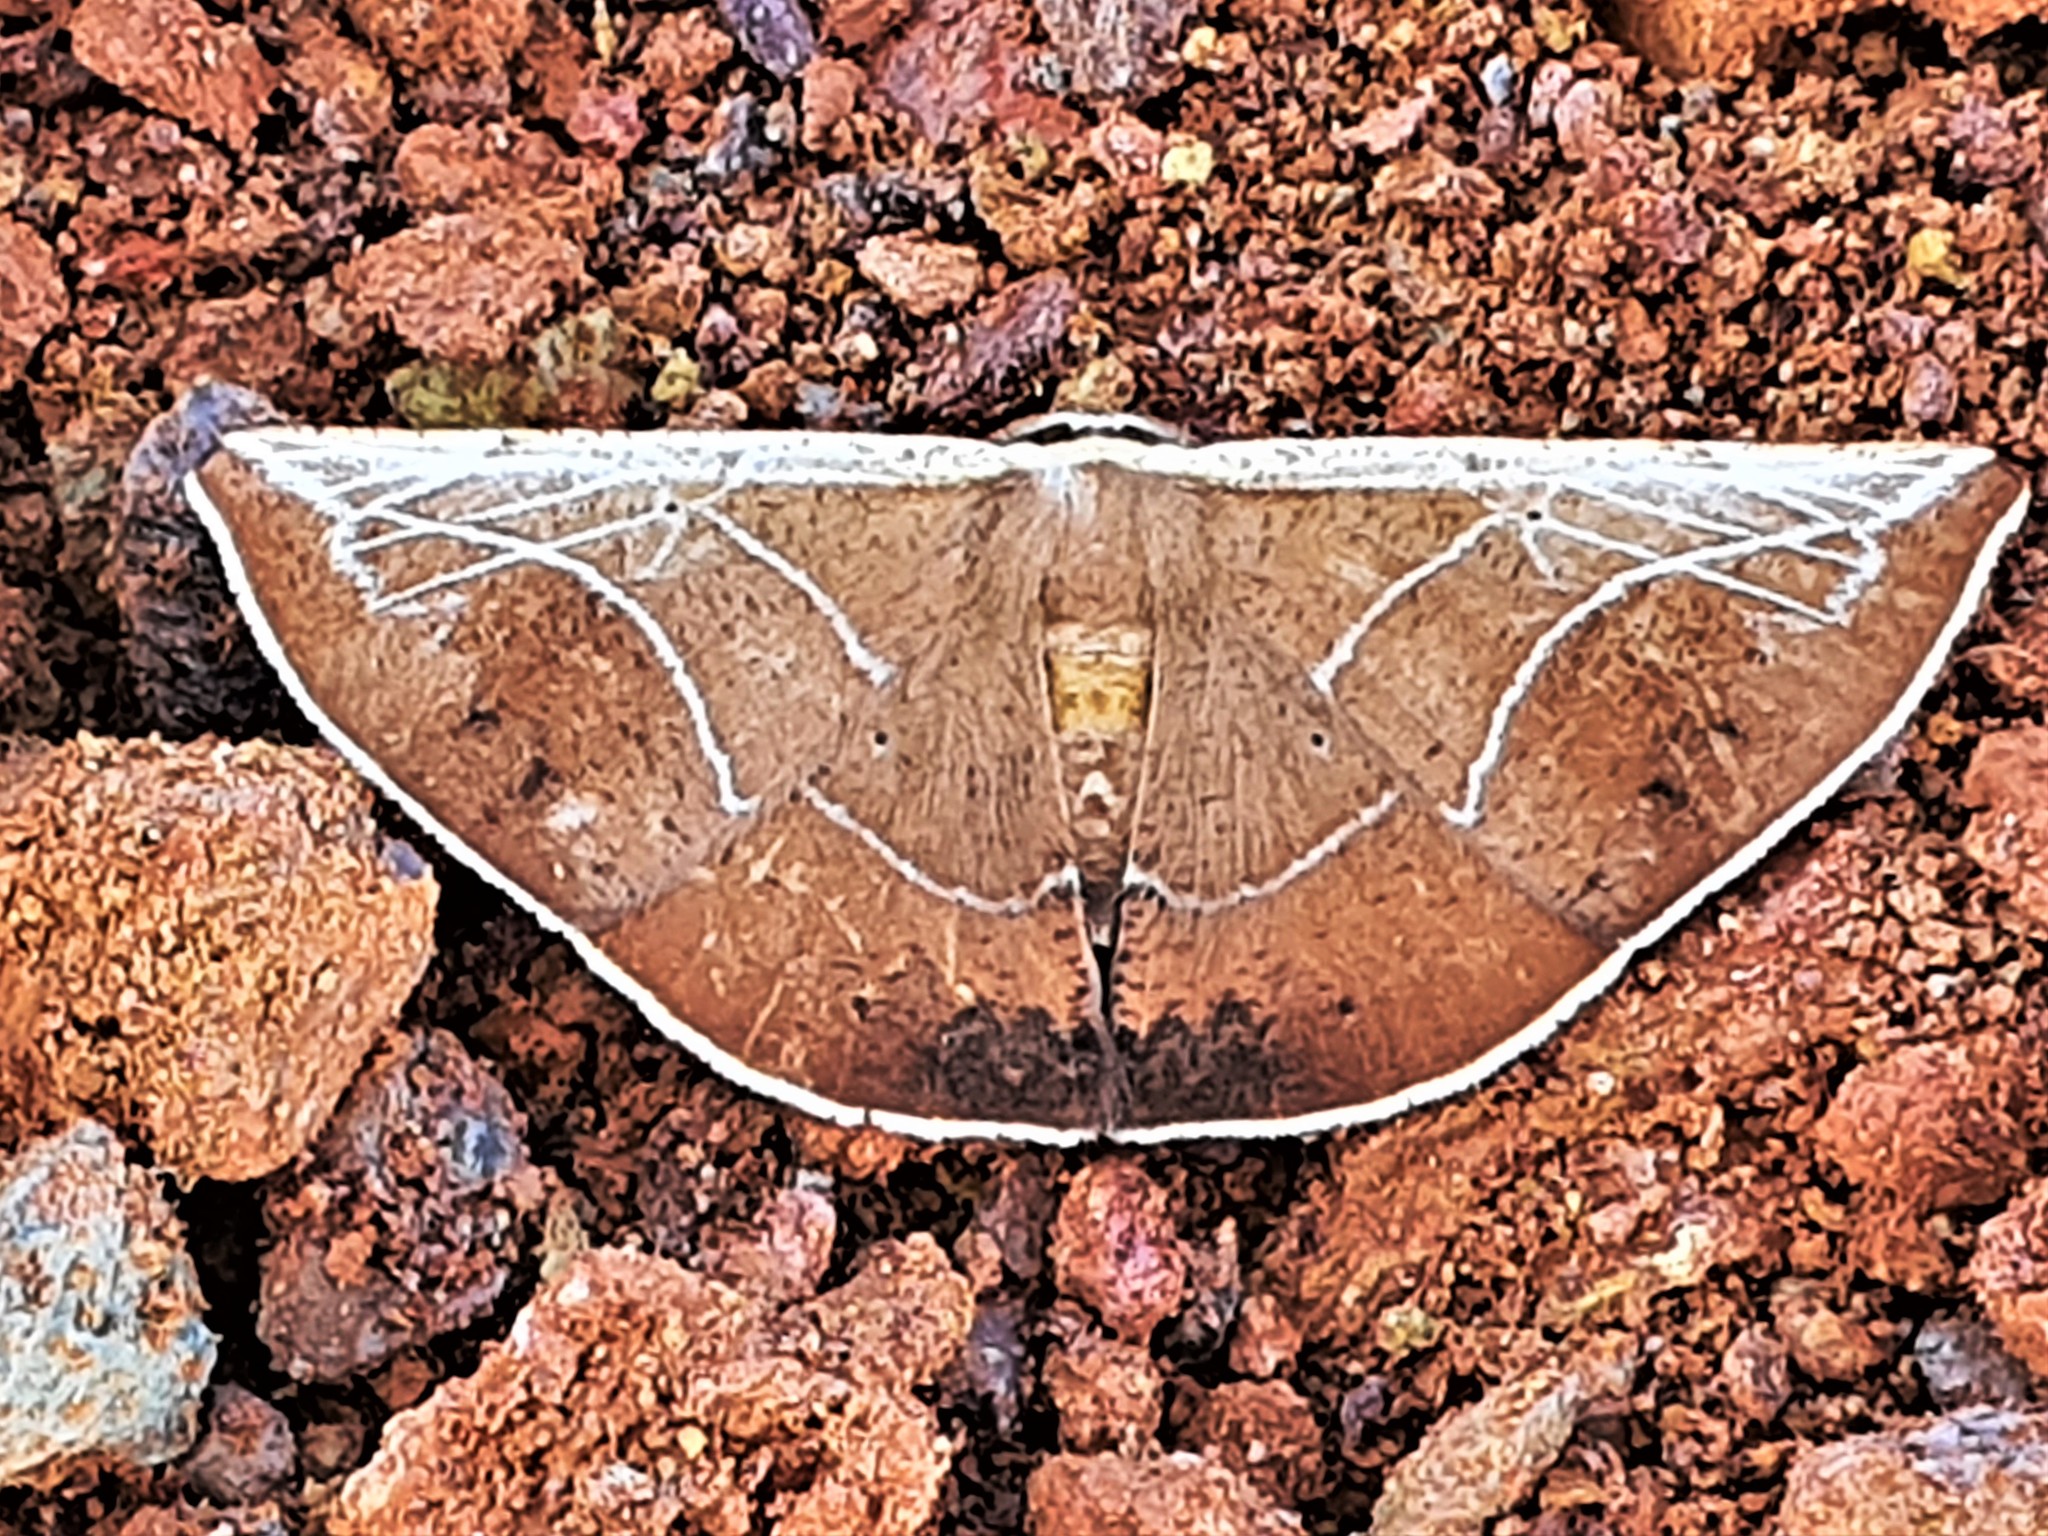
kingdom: Animalia
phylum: Arthropoda
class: Insecta
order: Lepidoptera
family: Geometridae
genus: Polla
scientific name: Polla celeraria
